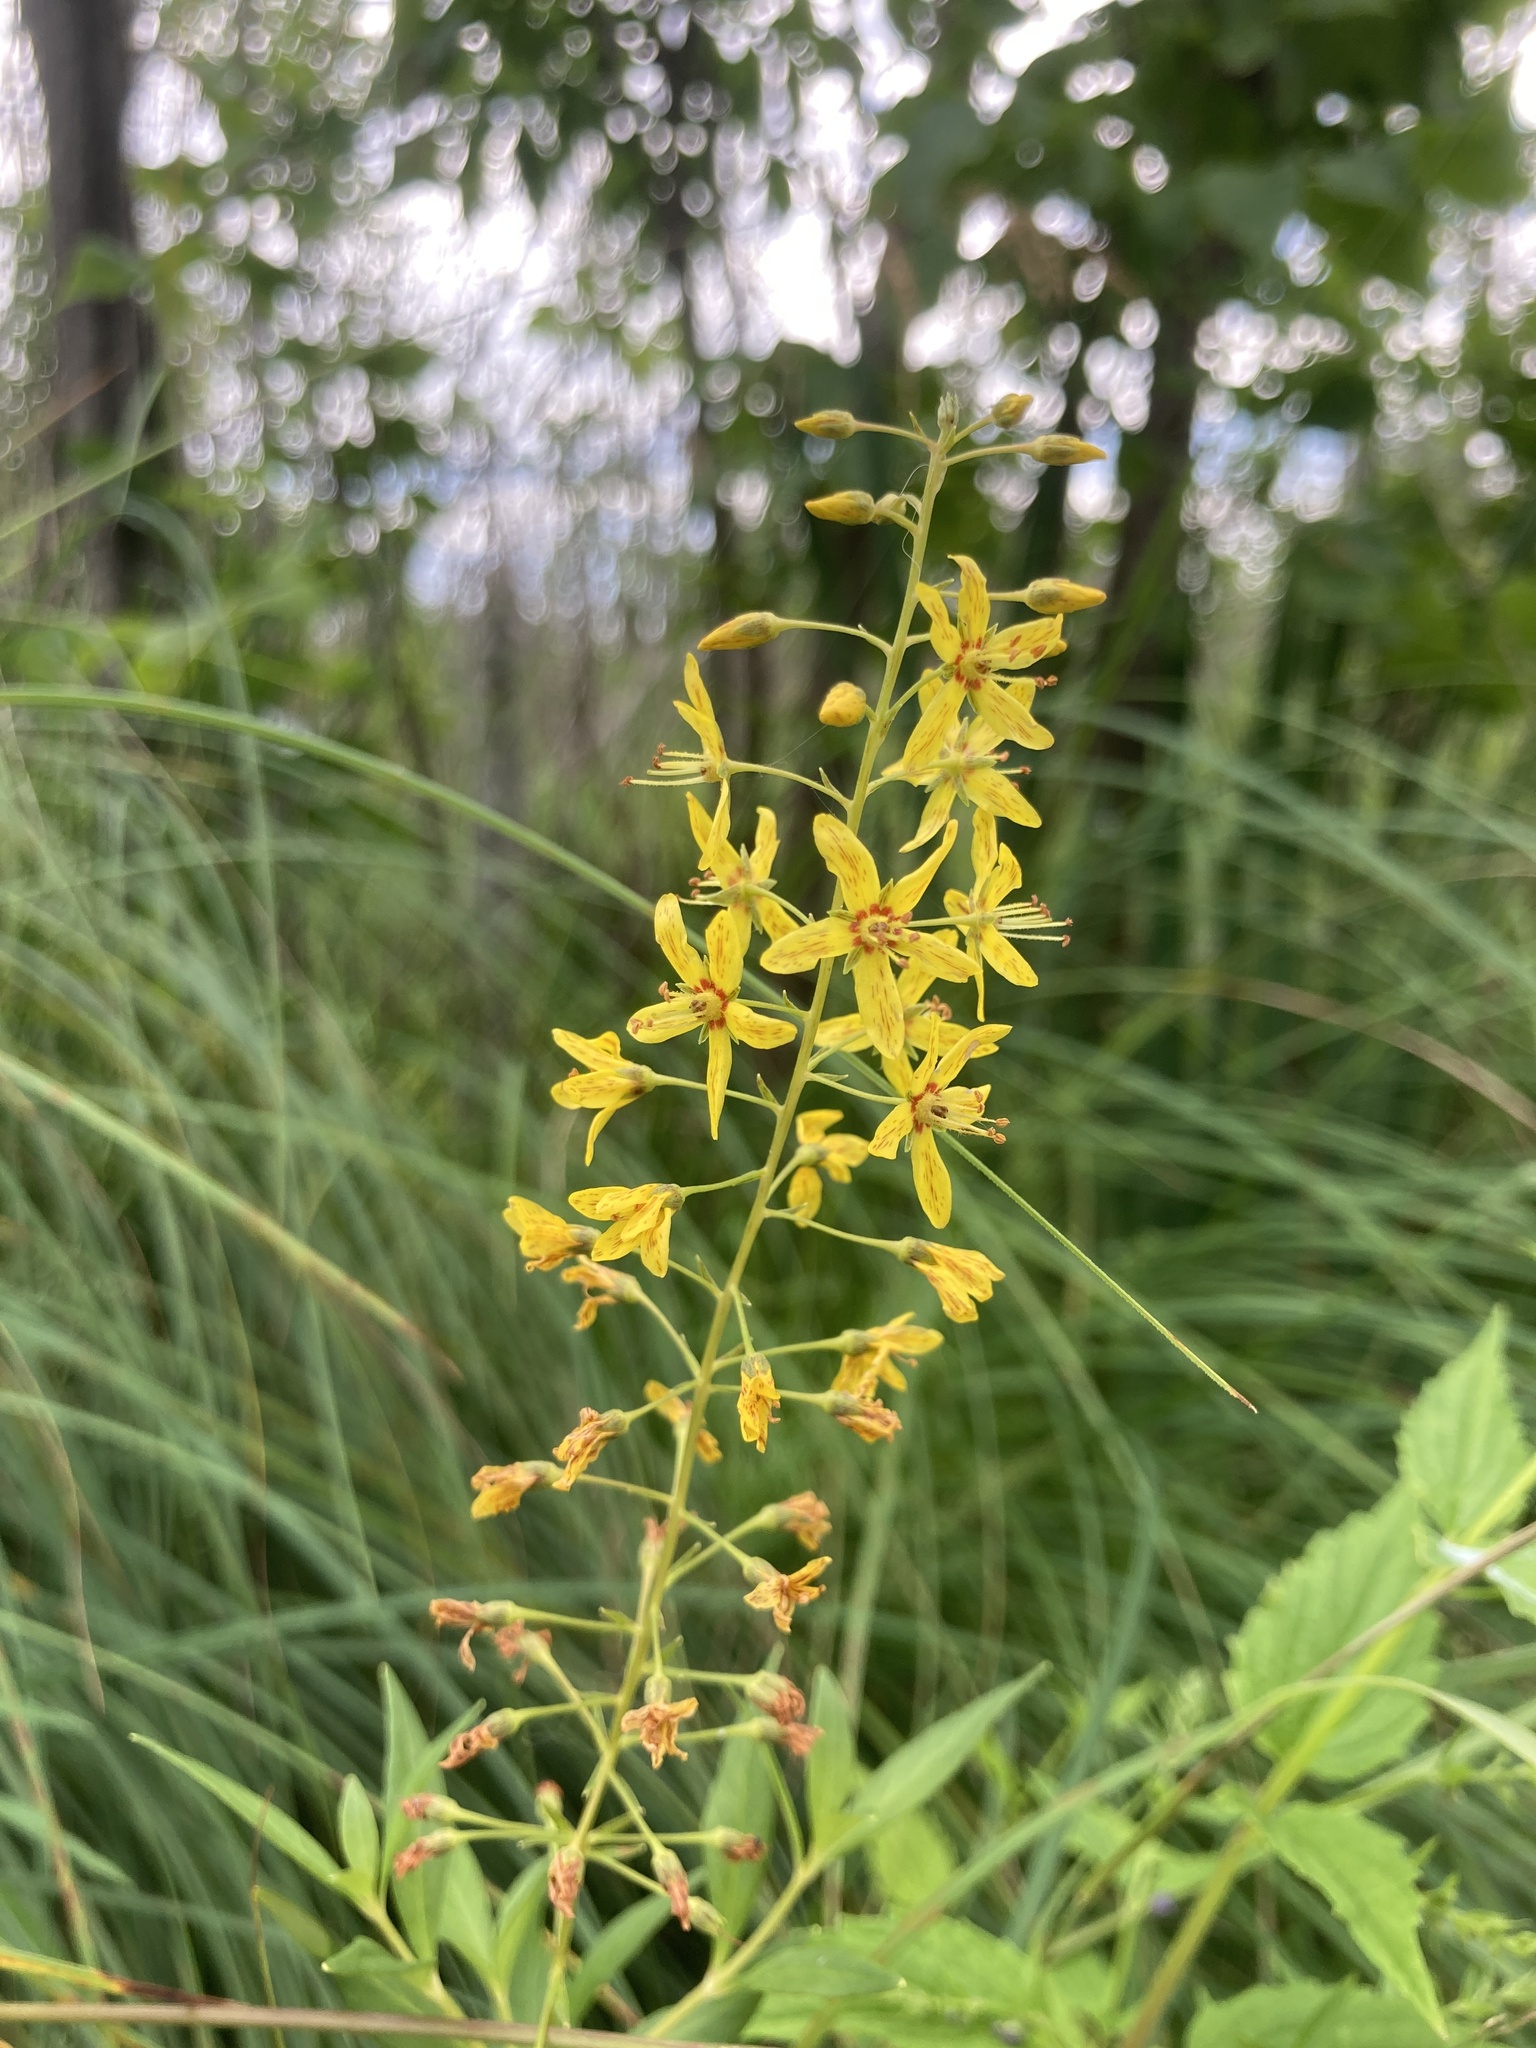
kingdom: Plantae
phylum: Tracheophyta
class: Magnoliopsida
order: Ericales
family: Primulaceae
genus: Lysimachia
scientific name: Lysimachia terrestris
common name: Lake loosestrife
